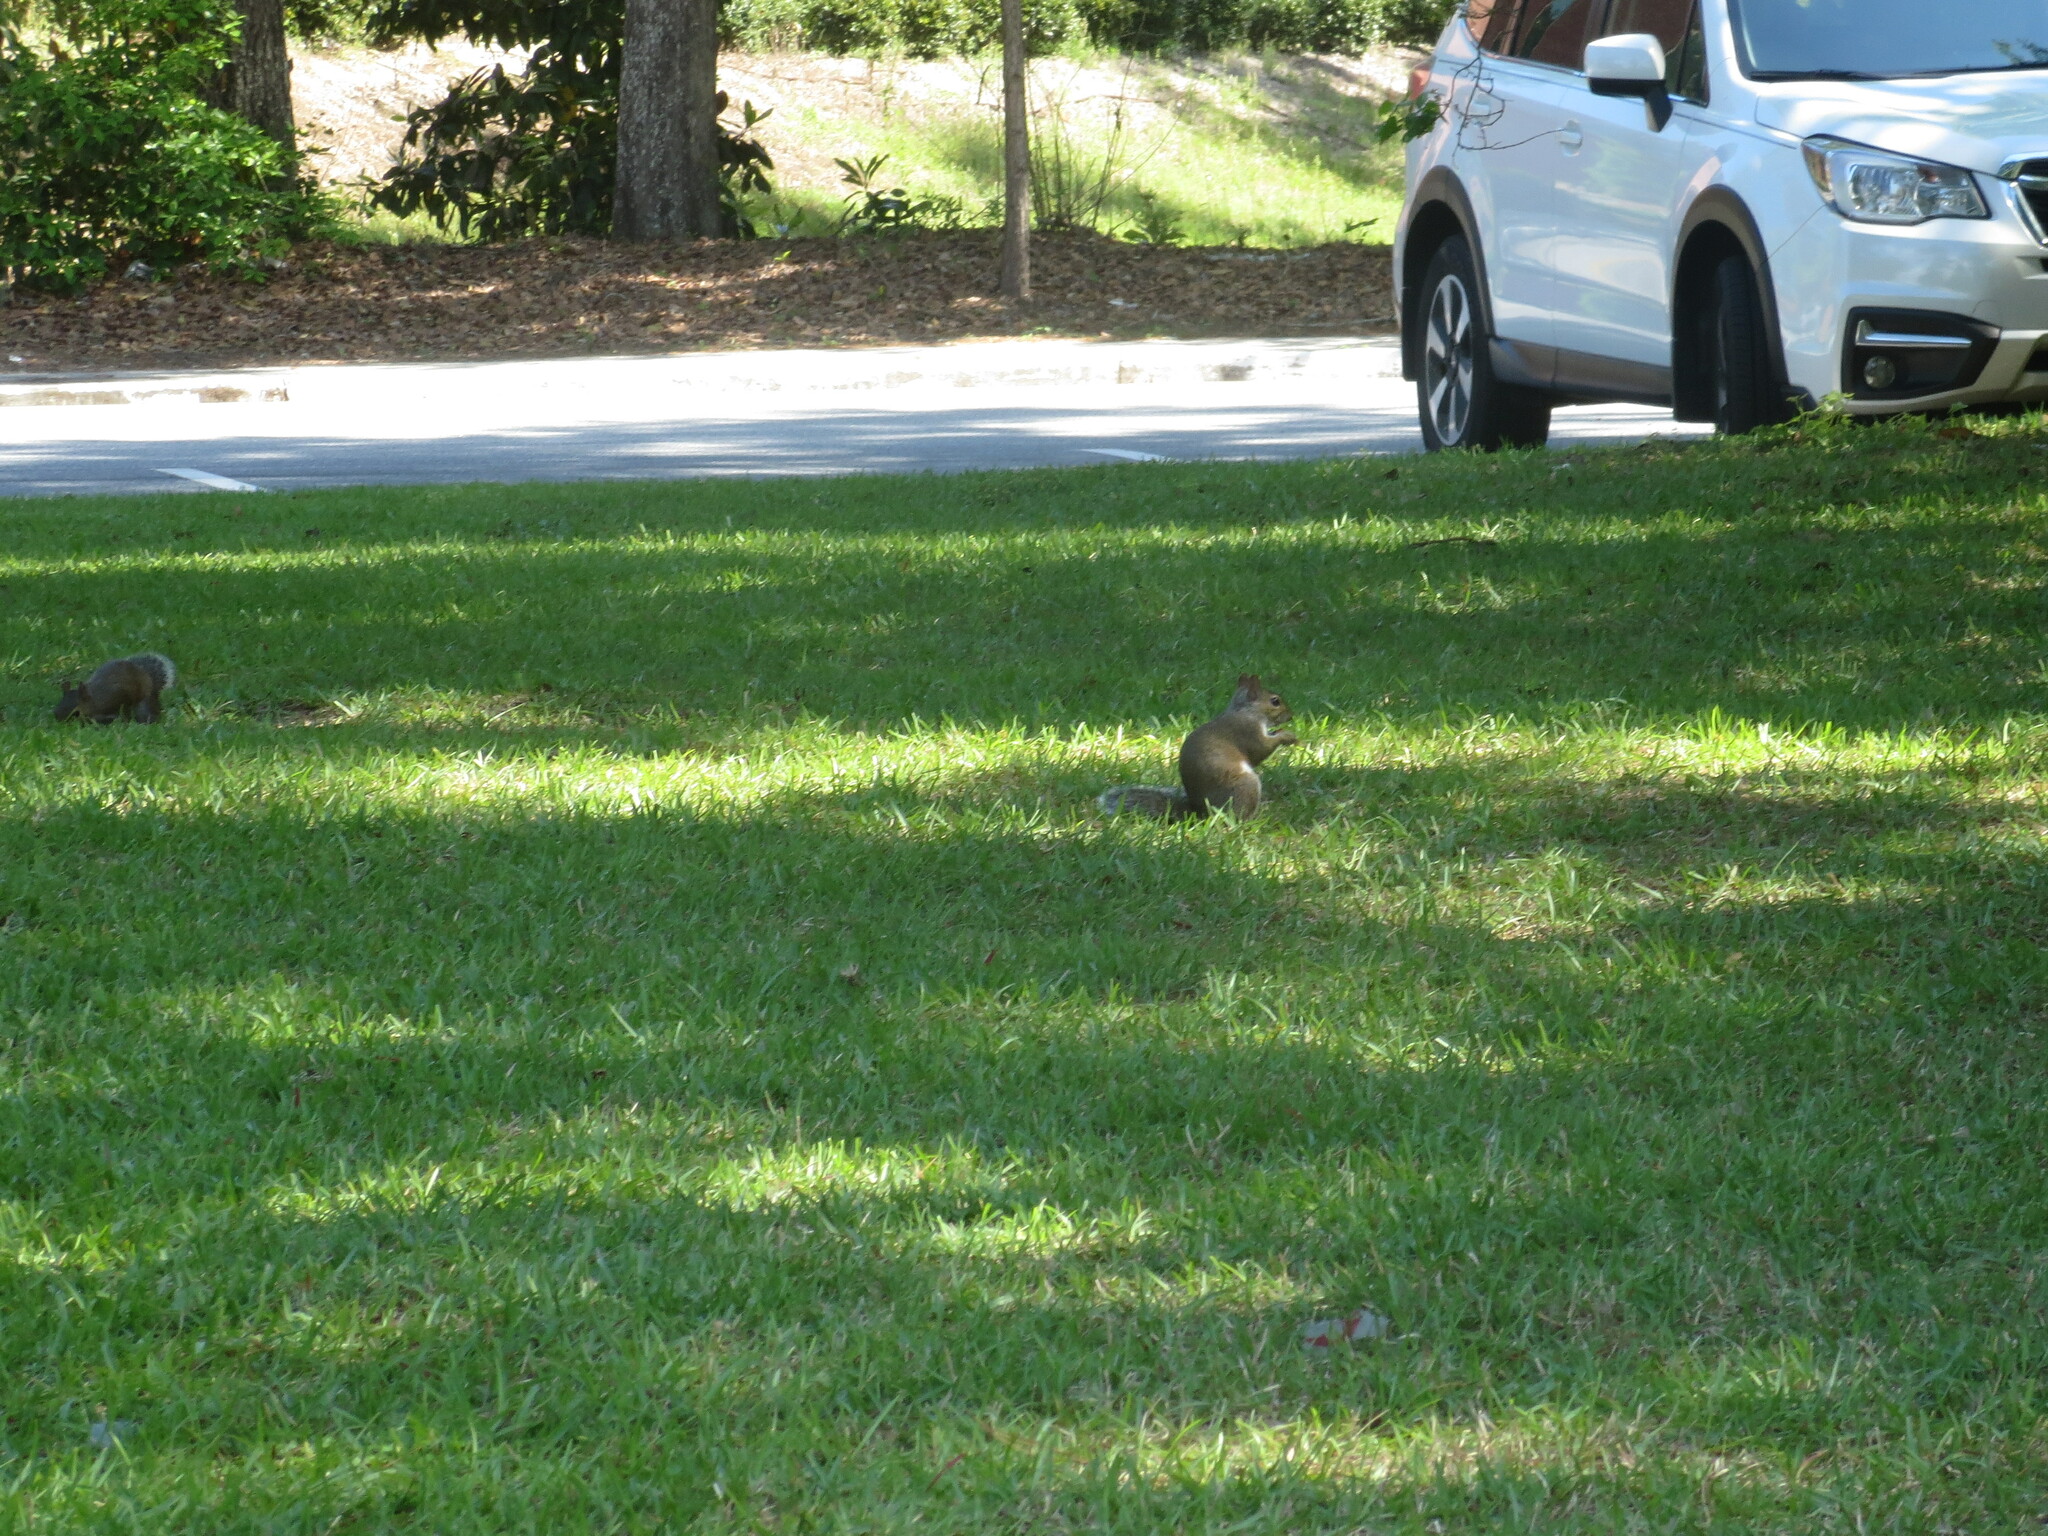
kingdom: Animalia
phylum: Chordata
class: Mammalia
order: Rodentia
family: Sciuridae
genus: Sciurus
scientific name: Sciurus carolinensis
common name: Eastern gray squirrel
